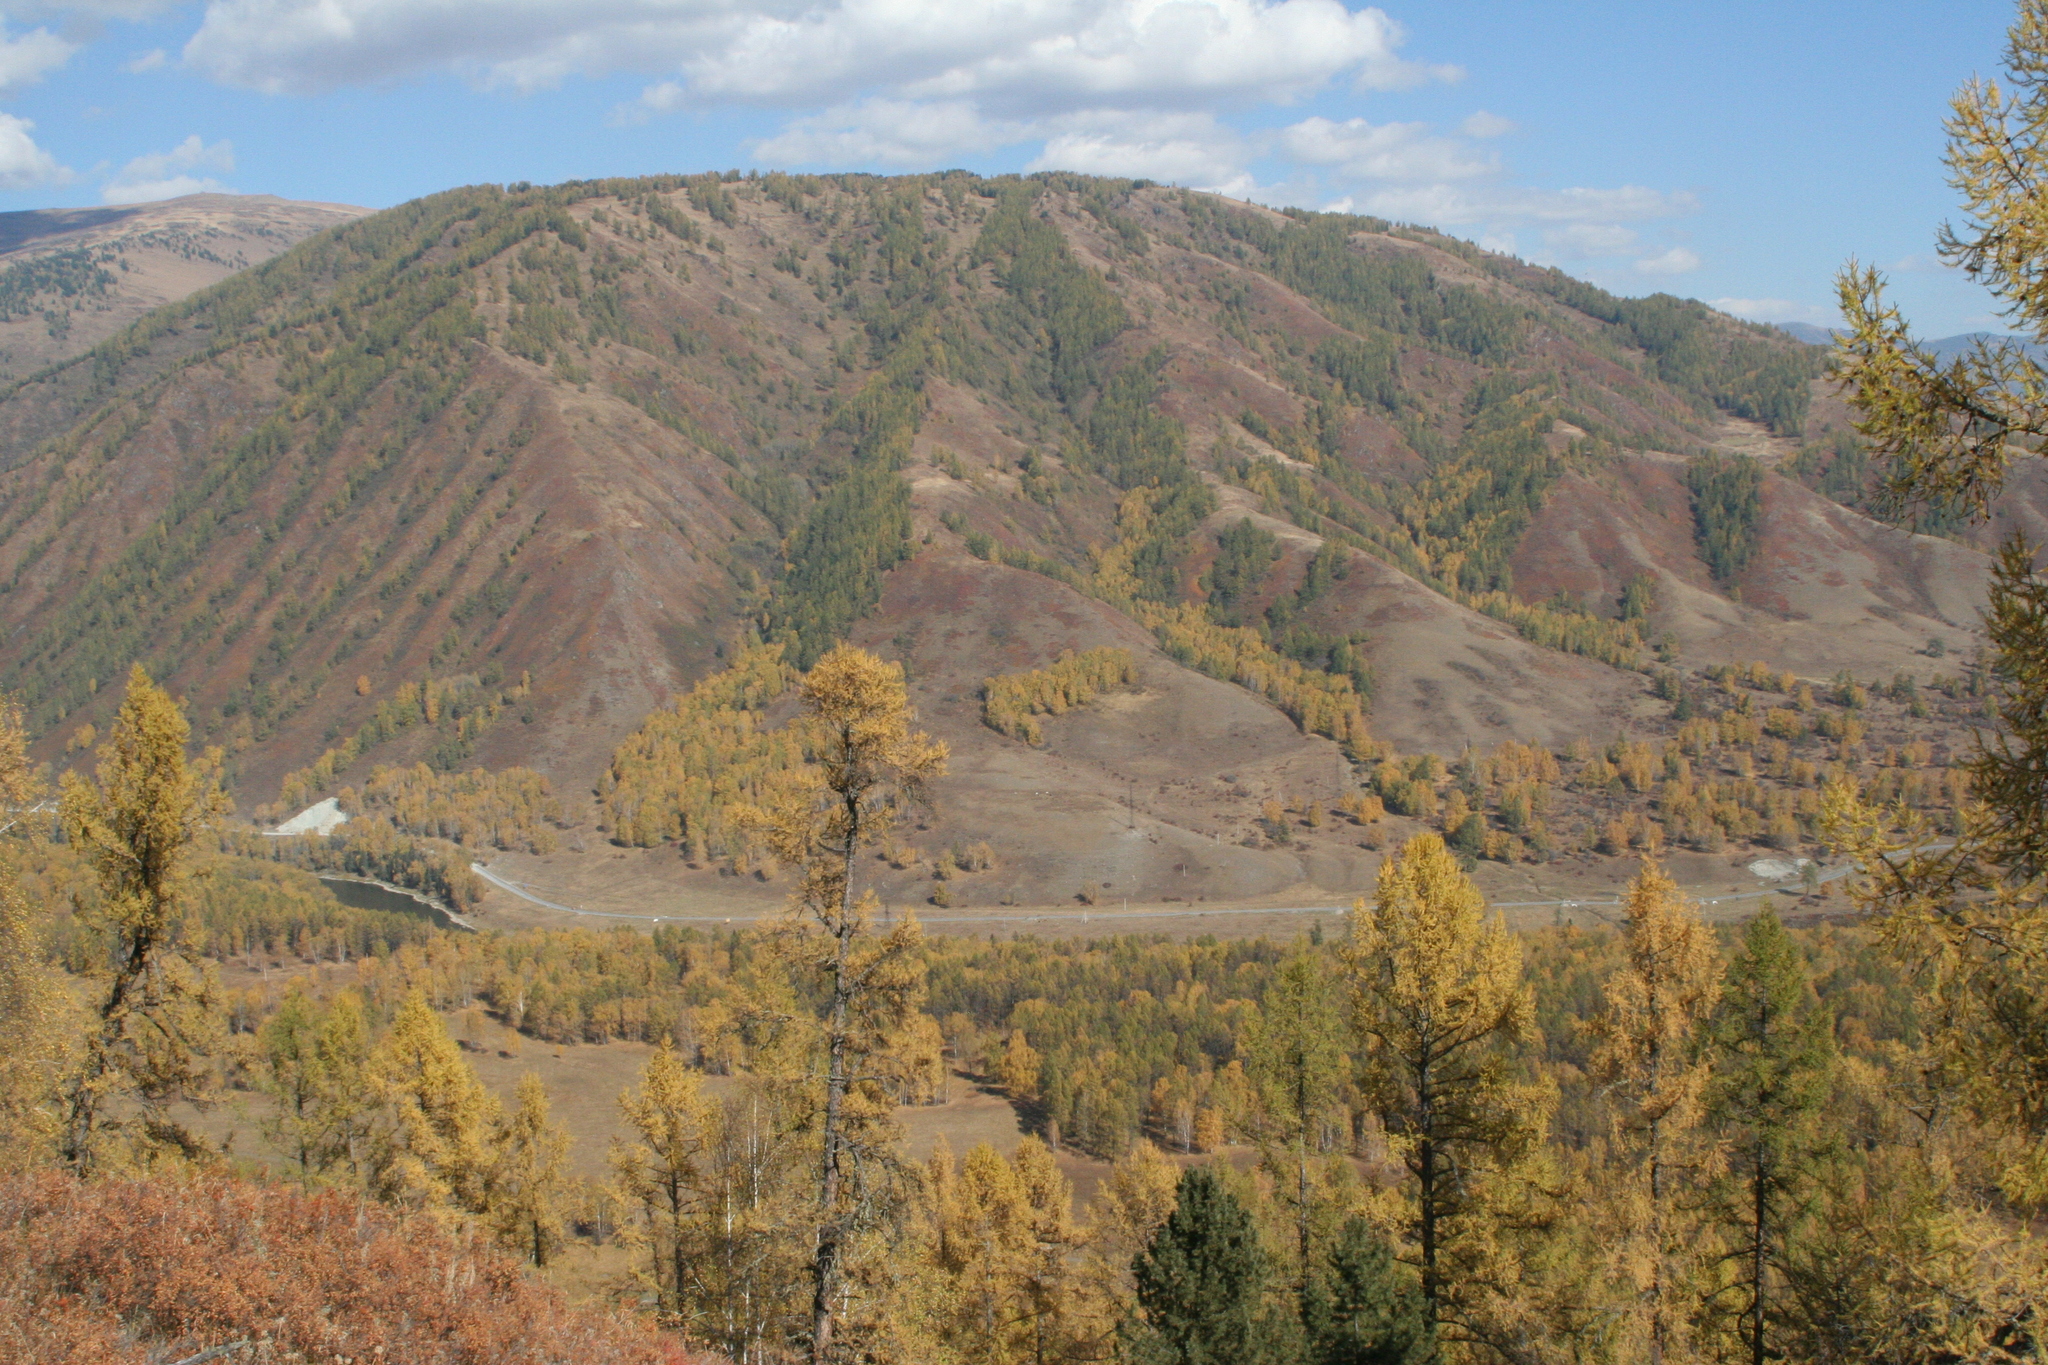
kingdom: Plantae
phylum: Tracheophyta
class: Pinopsida
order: Pinales
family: Pinaceae
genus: Pinus
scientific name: Pinus sibirica
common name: Siberian pine
